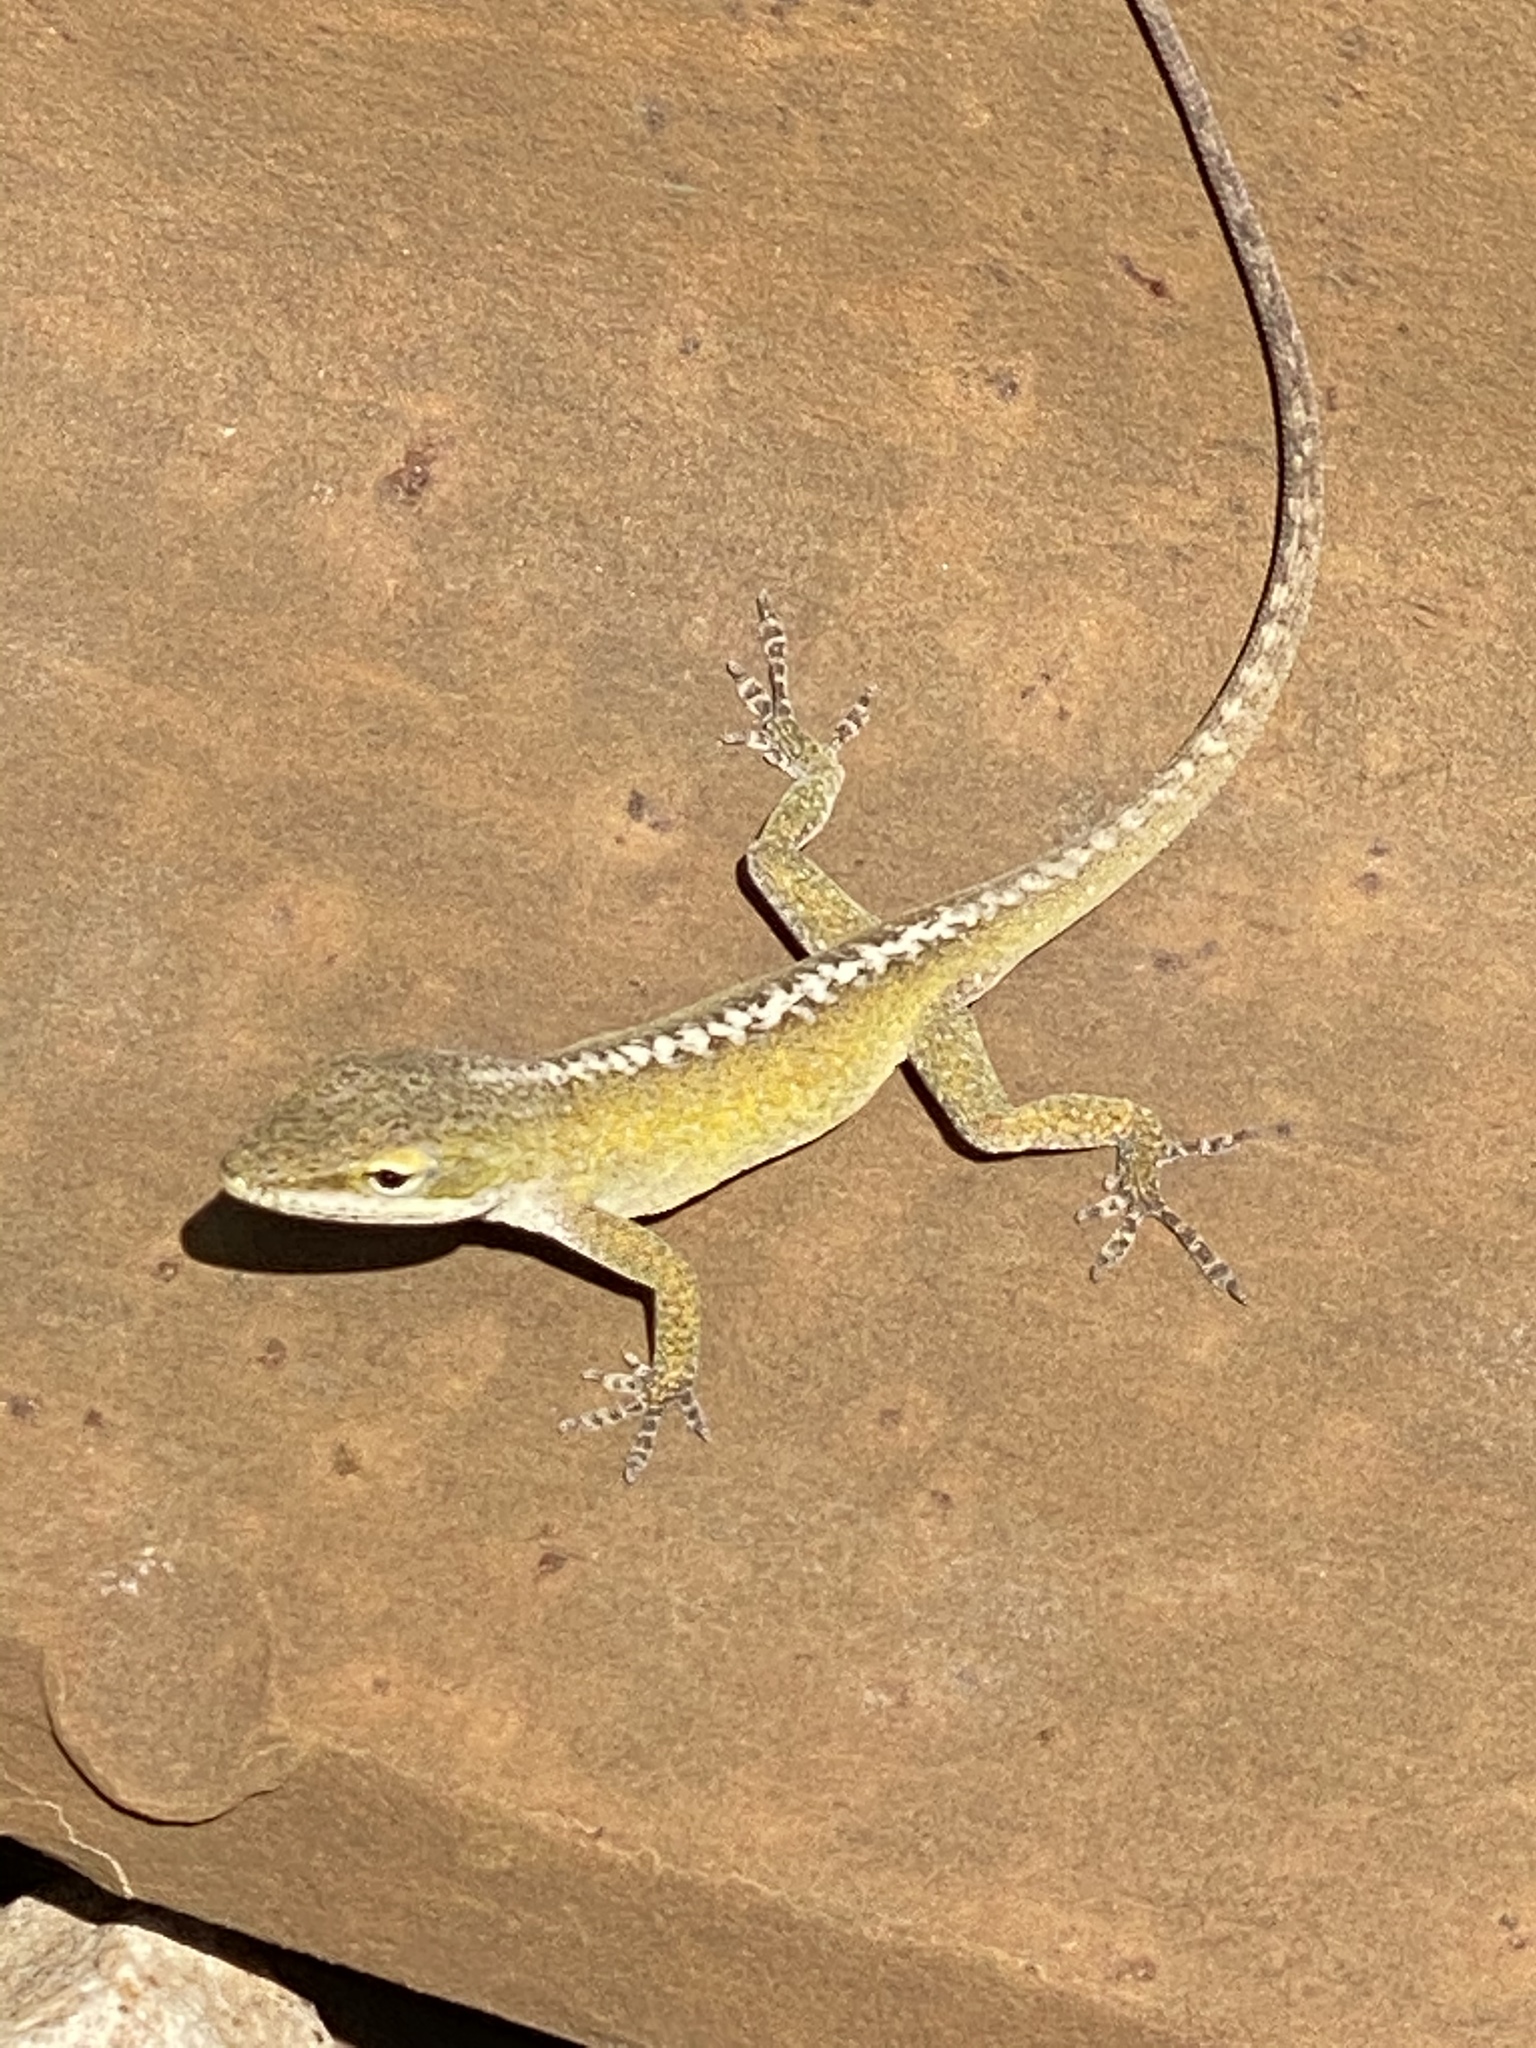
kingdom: Animalia
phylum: Chordata
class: Squamata
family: Dactyloidae
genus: Anolis
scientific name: Anolis carolinensis
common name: Green anole
